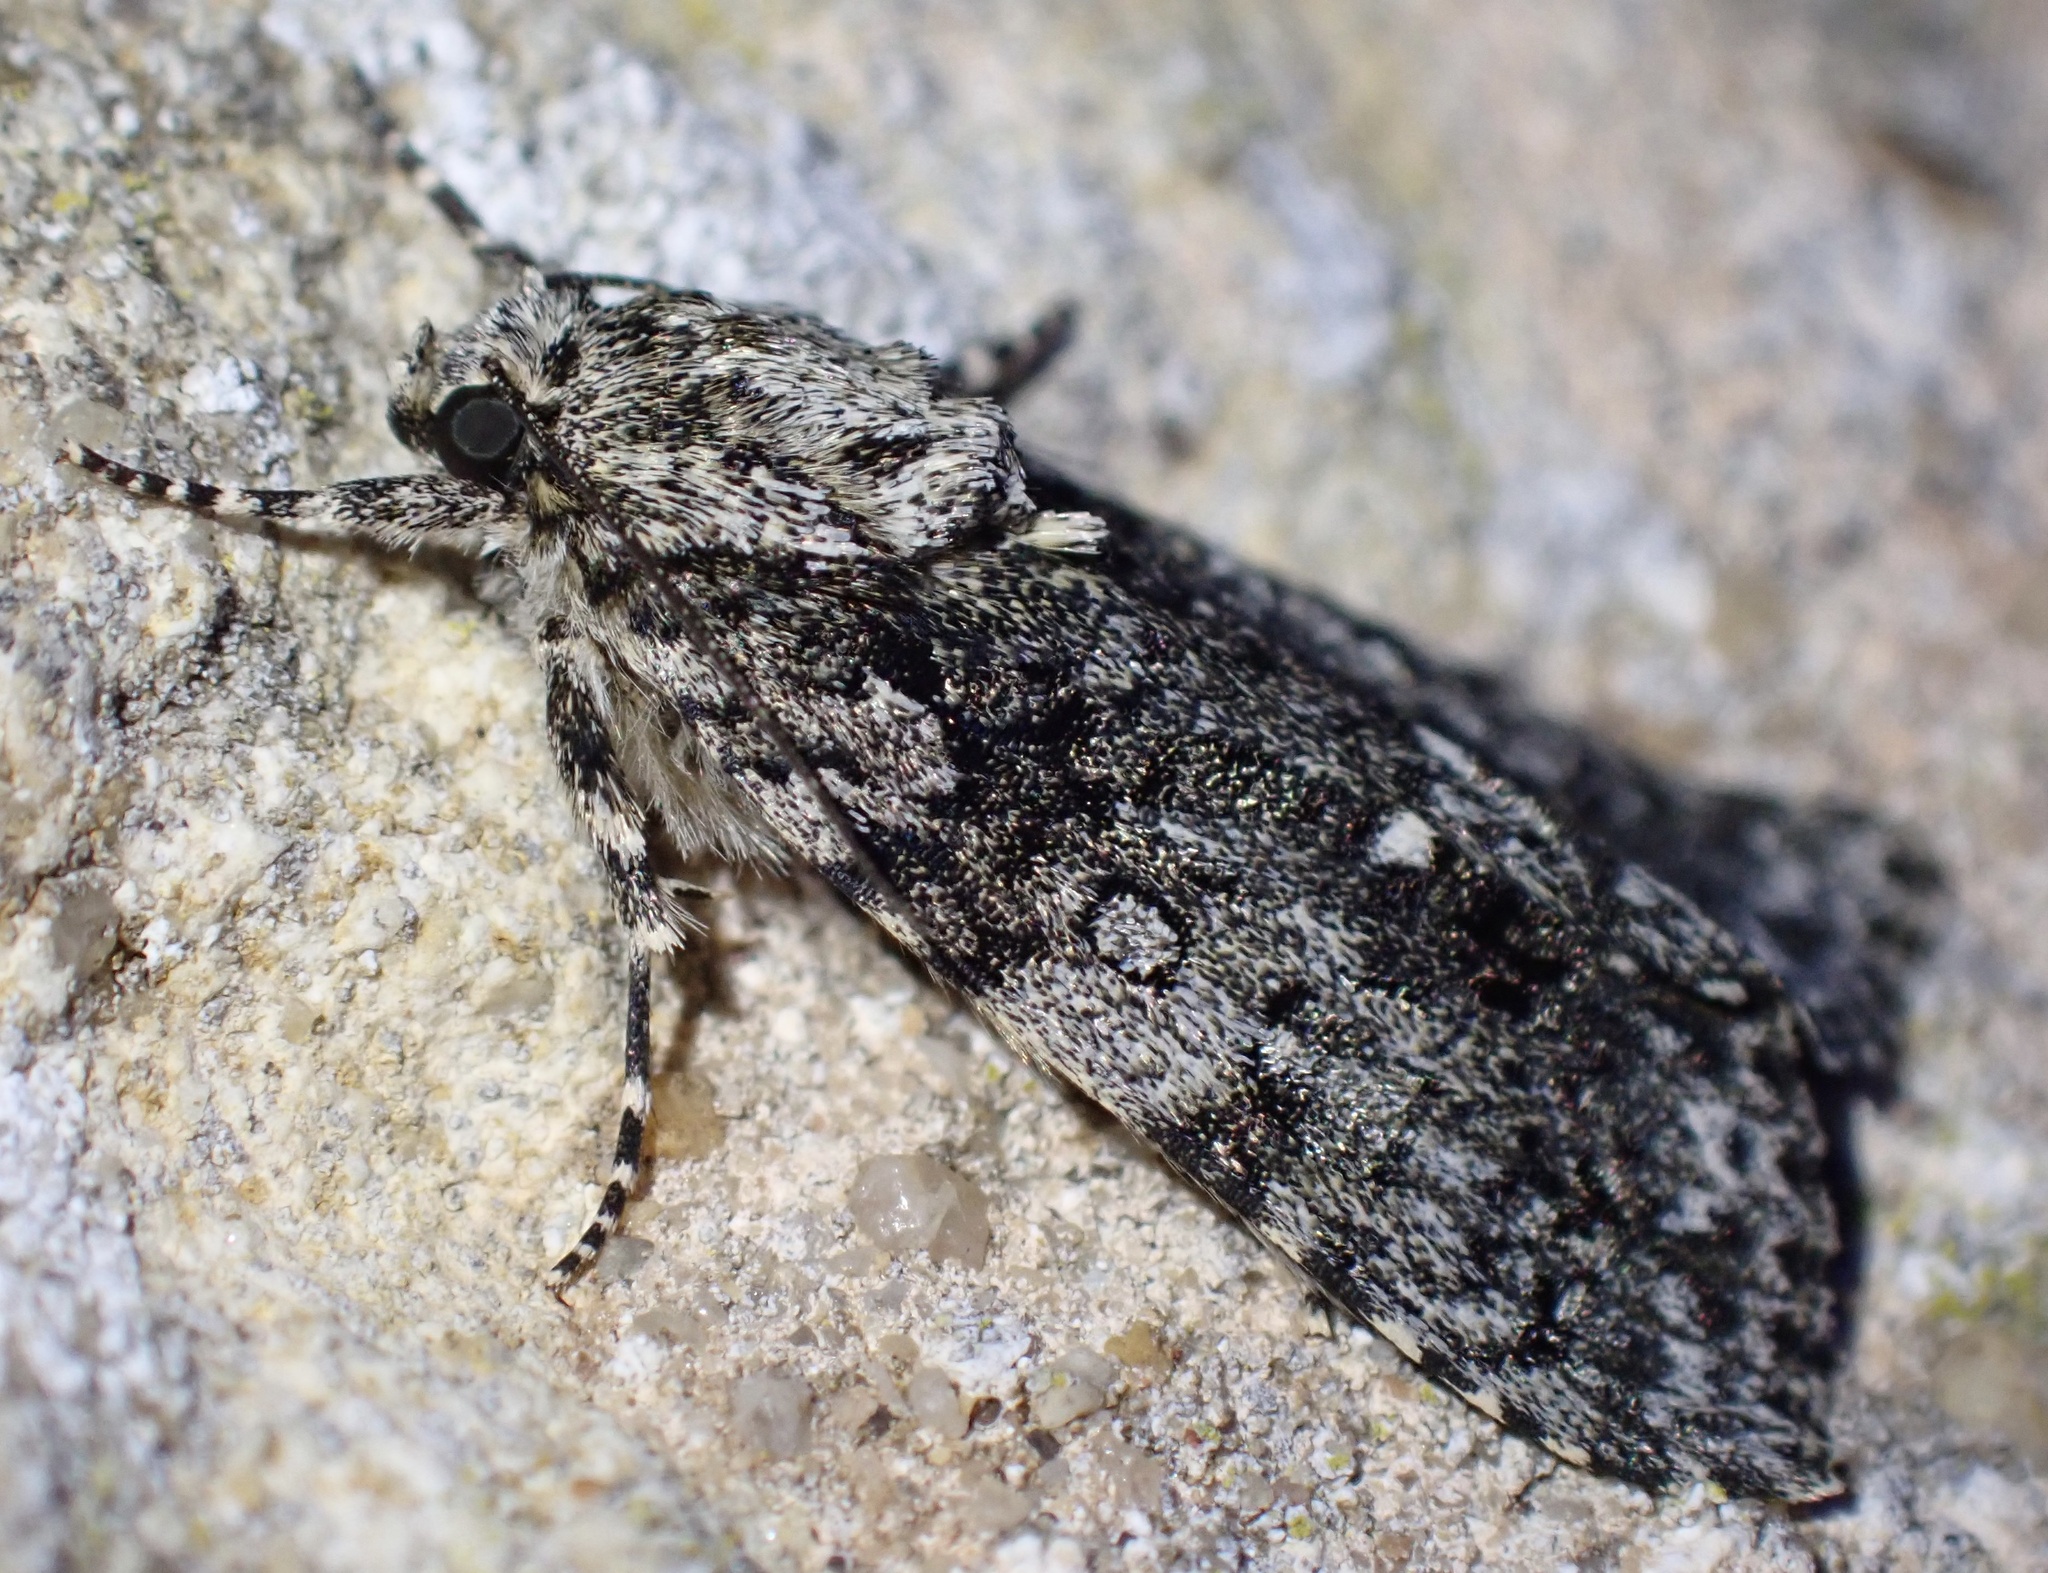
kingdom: Animalia
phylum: Arthropoda
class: Insecta
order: Lepidoptera
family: Noctuidae
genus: Acronicta
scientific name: Acronicta rumicis
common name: Knot grass
